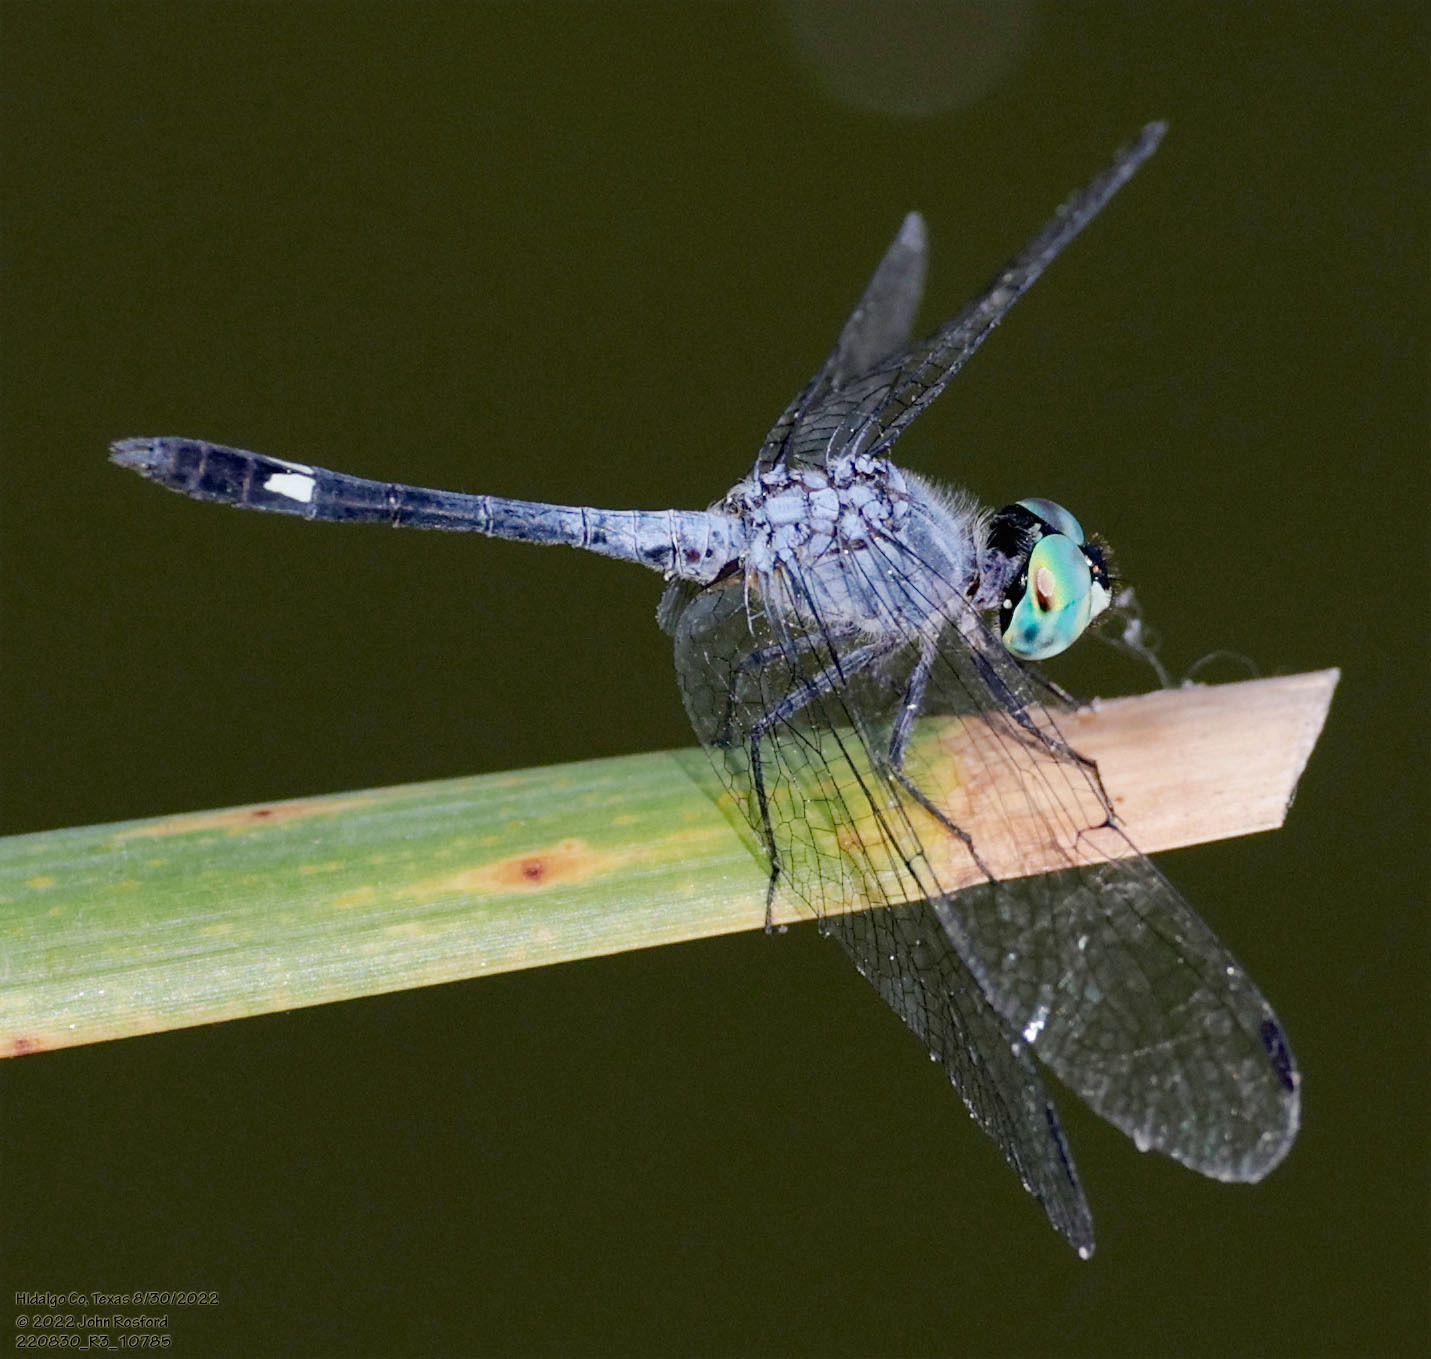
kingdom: Animalia
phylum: Arthropoda
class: Insecta
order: Odonata
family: Libellulidae
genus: Micrathyria
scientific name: Micrathyria aequalis
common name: Spot-tailed dasher
